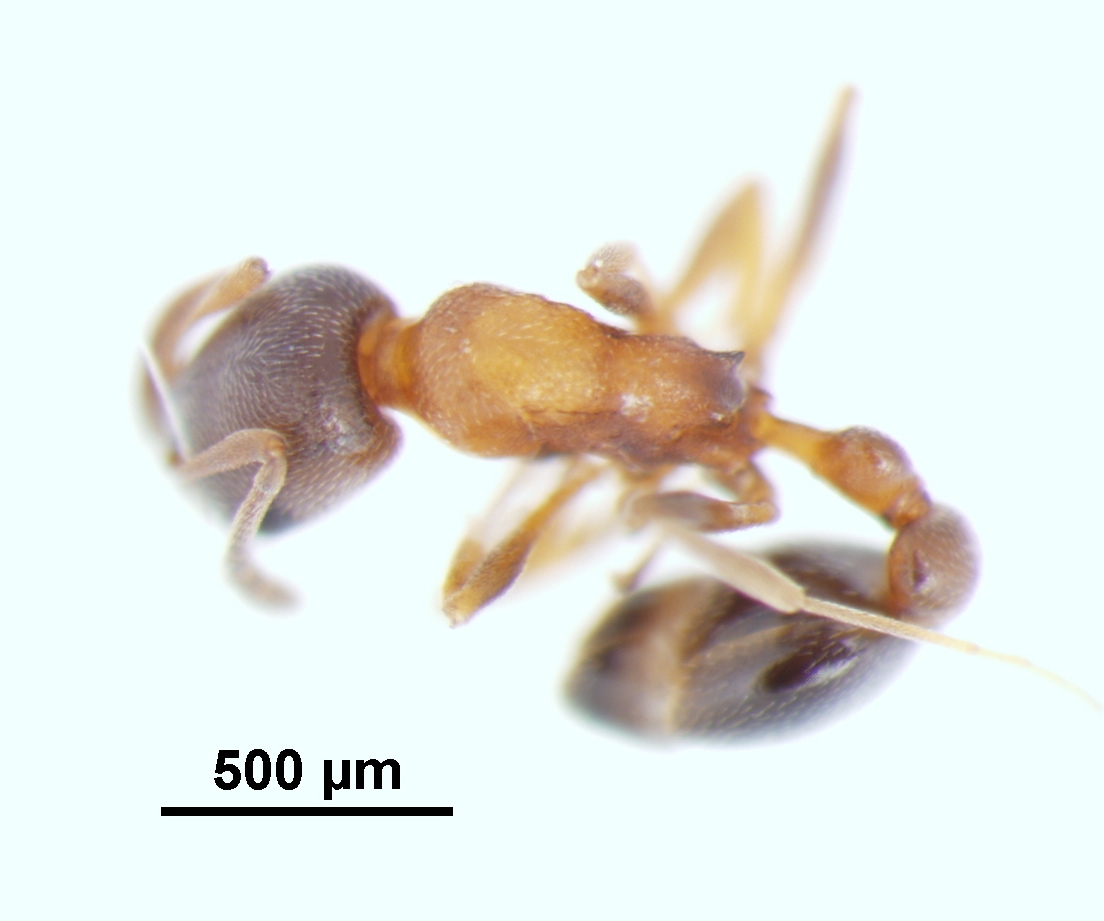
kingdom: Animalia
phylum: Arthropoda
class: Insecta
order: Hymenoptera
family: Formicidae
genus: Cardiocondyla
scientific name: Cardiocondyla mauritanica
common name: Sneaking ant
